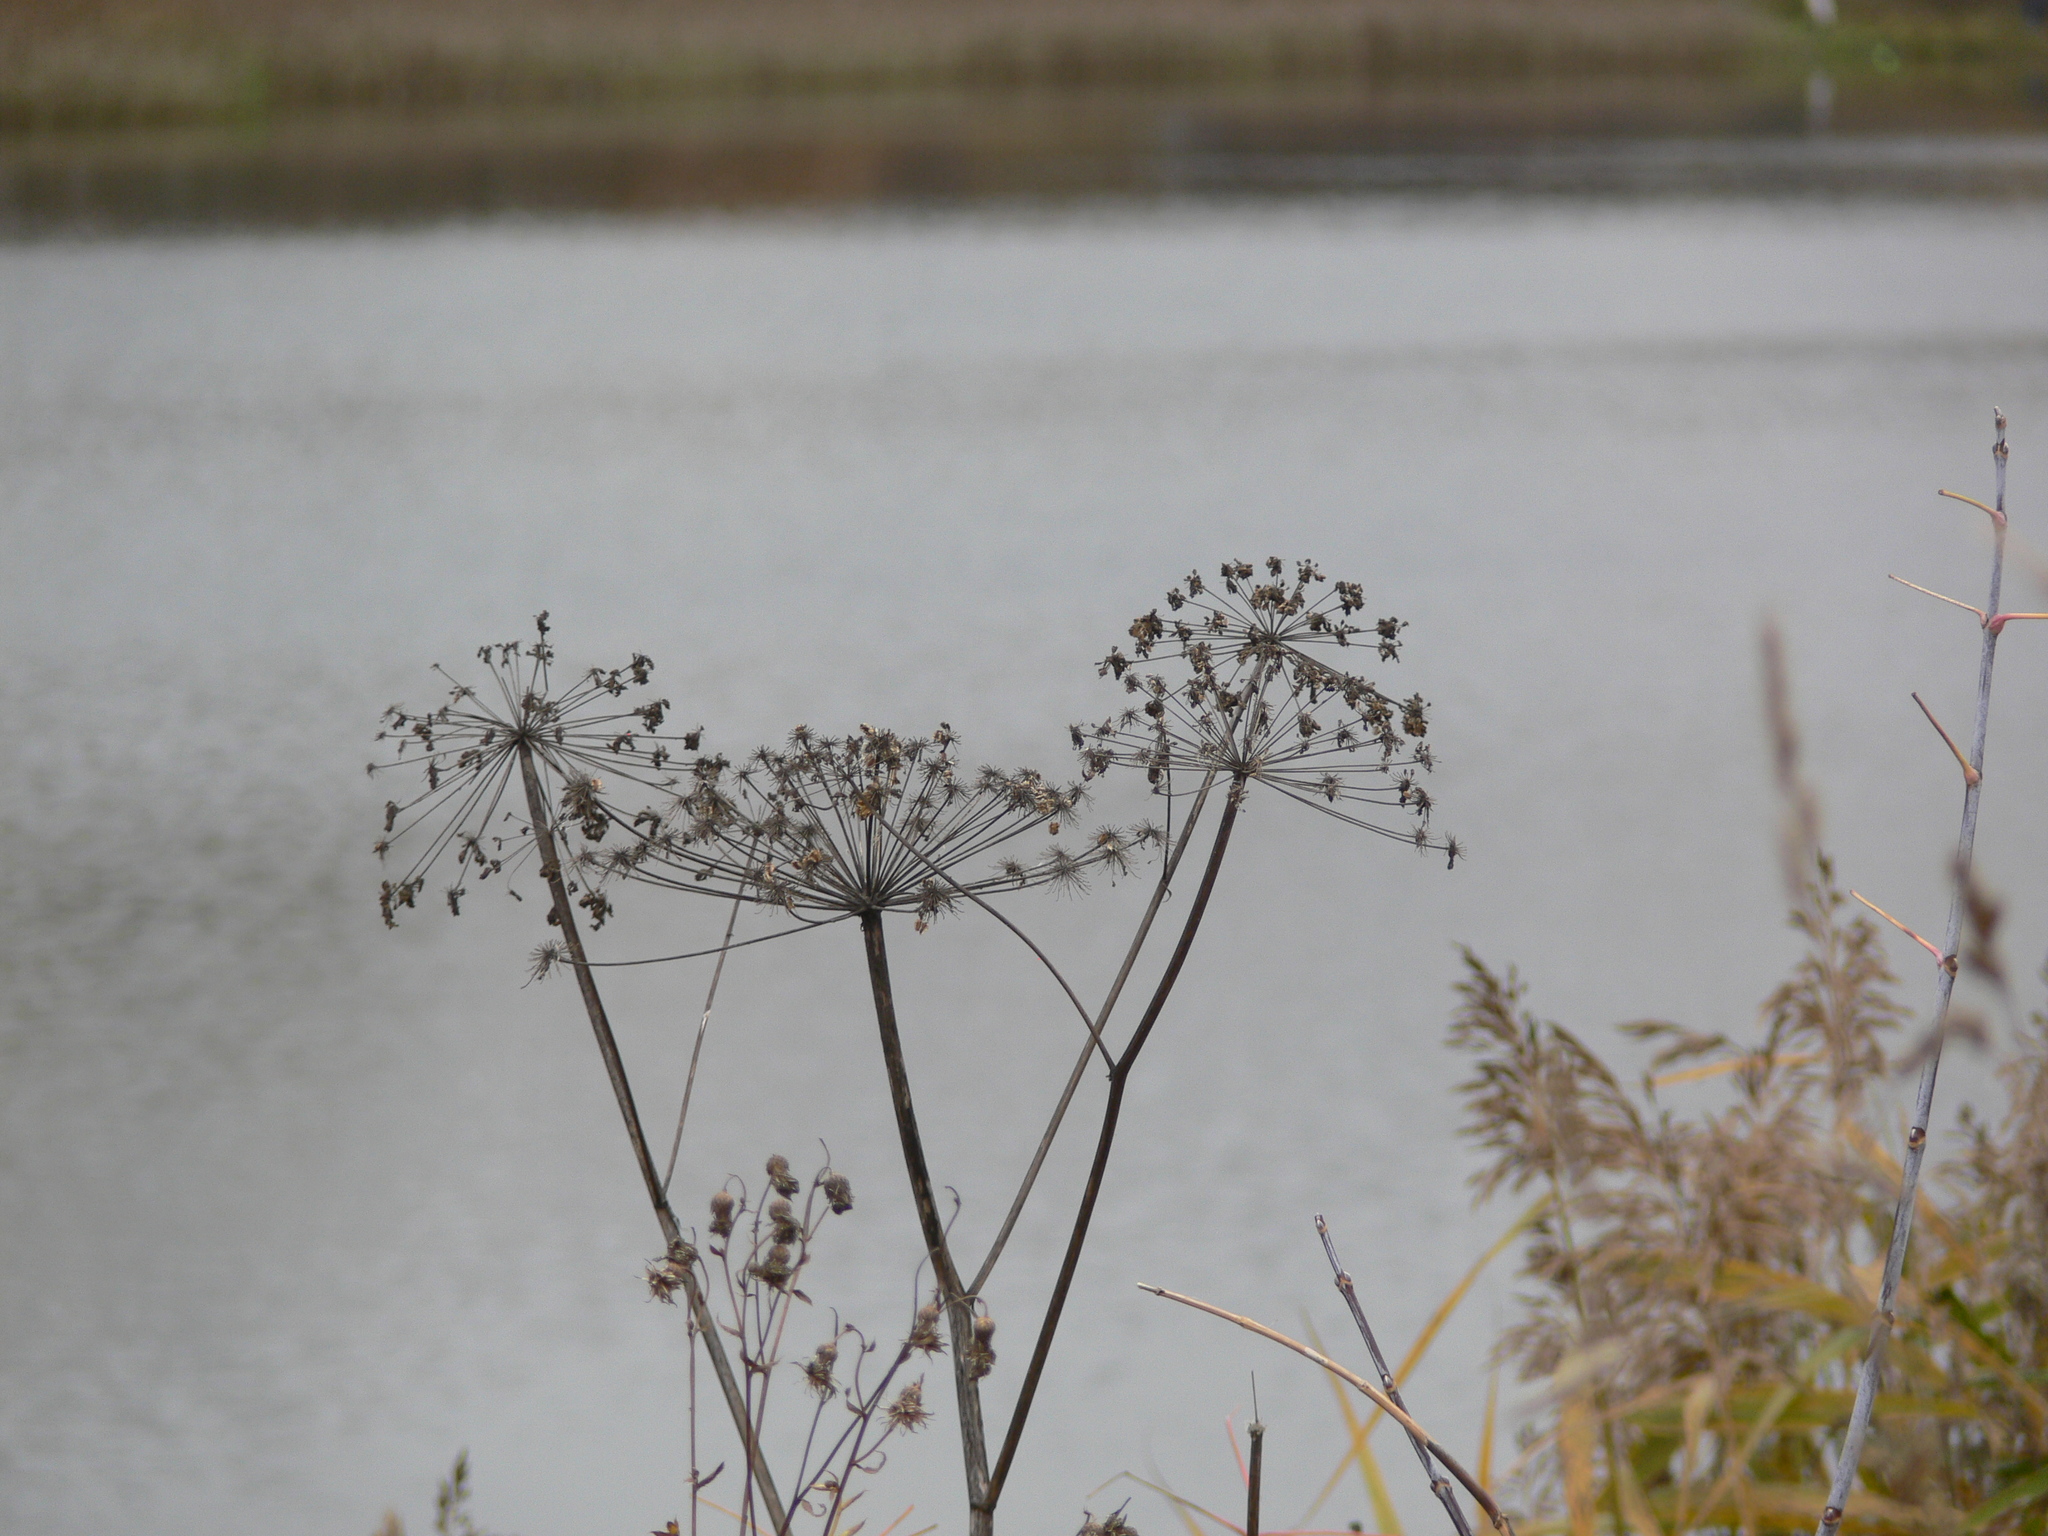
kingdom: Plantae
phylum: Tracheophyta
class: Magnoliopsida
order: Apiales
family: Apiaceae
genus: Angelica
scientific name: Angelica sylvestris
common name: Wild angelica
